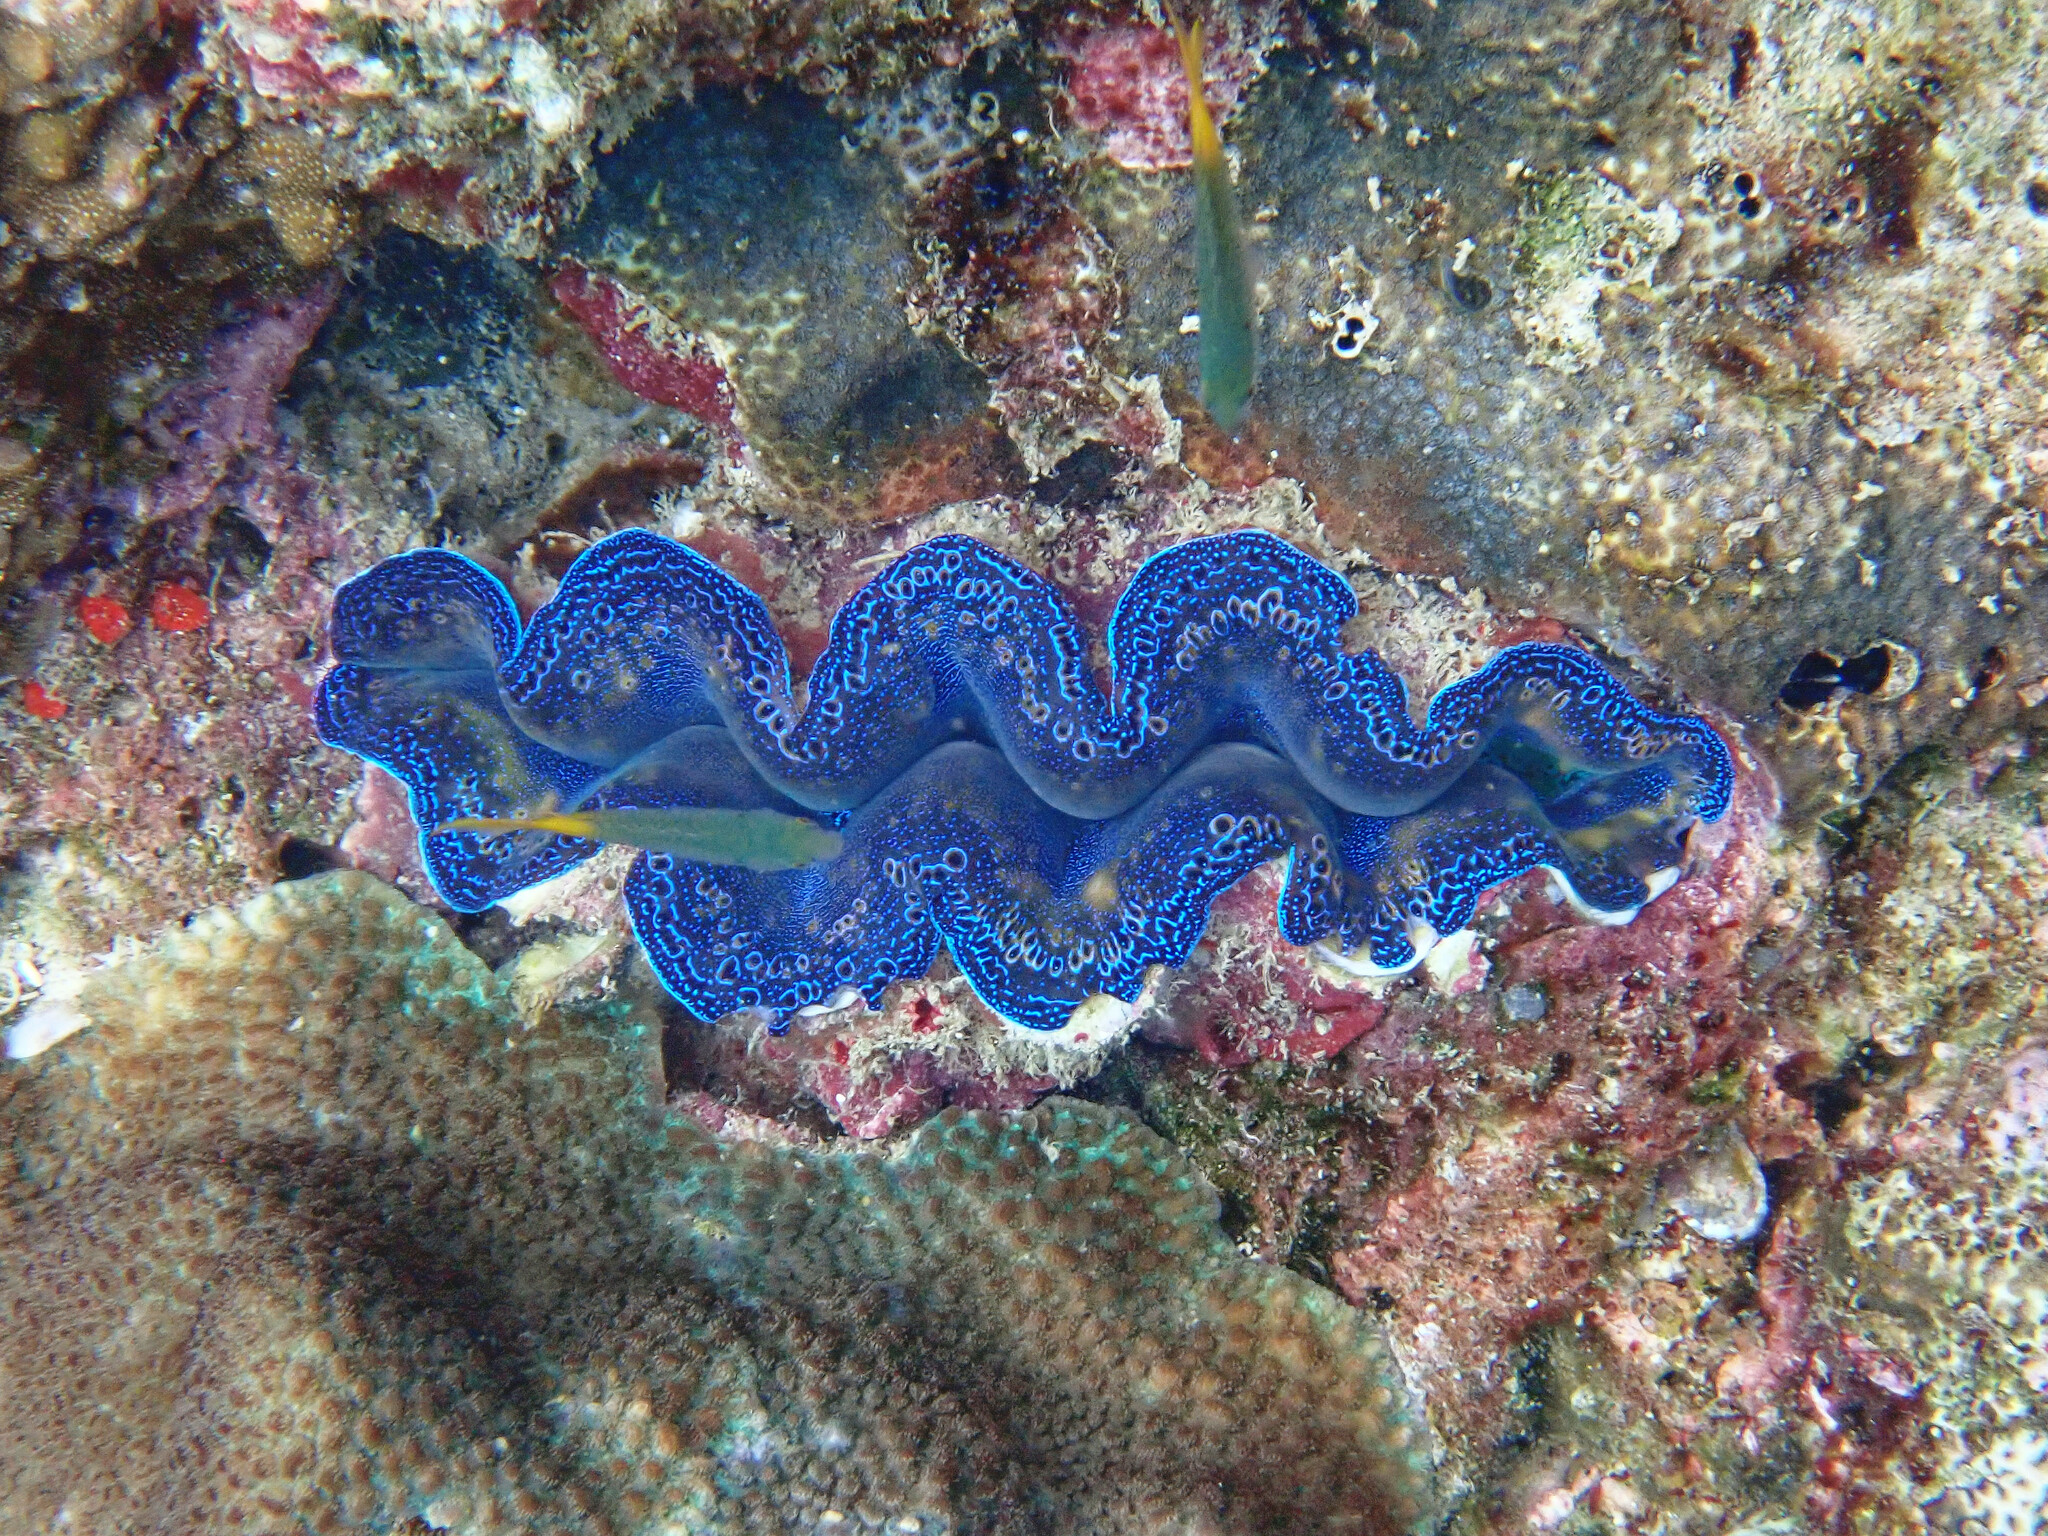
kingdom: Animalia
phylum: Mollusca
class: Bivalvia
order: Cardiida
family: Cardiidae
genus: Tridacna
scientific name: Tridacna crocea
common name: Boring clam
